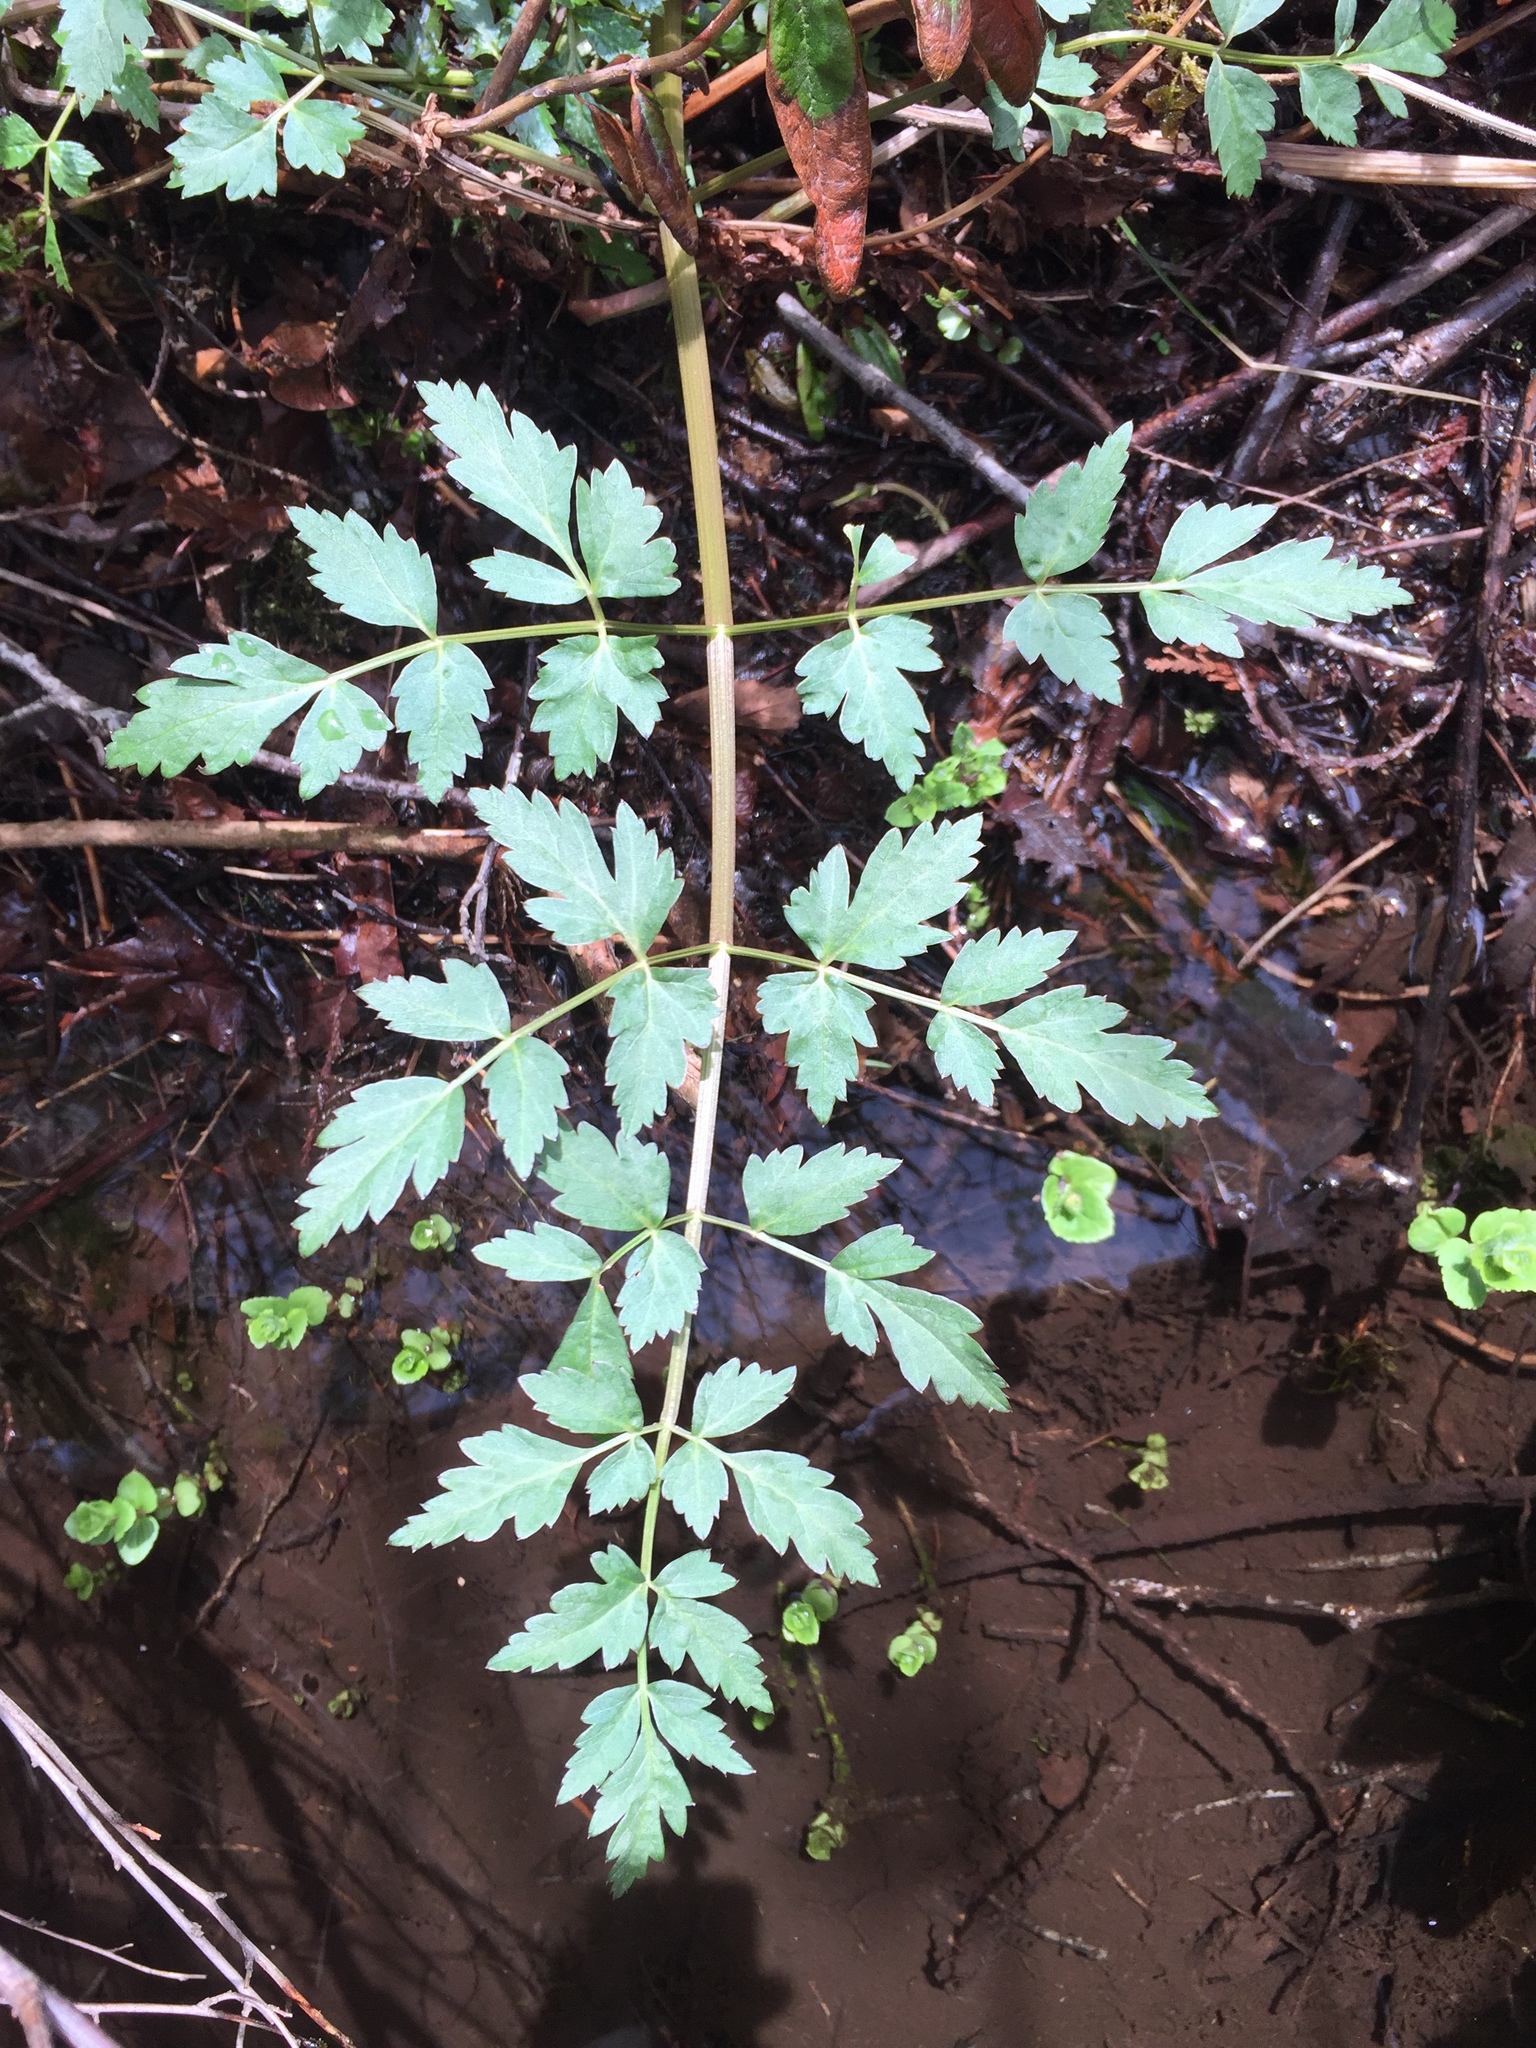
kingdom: Plantae
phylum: Tracheophyta
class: Magnoliopsida
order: Apiales
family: Apiaceae
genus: Oenanthe
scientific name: Oenanthe sarmentosa
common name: American water-parsley
